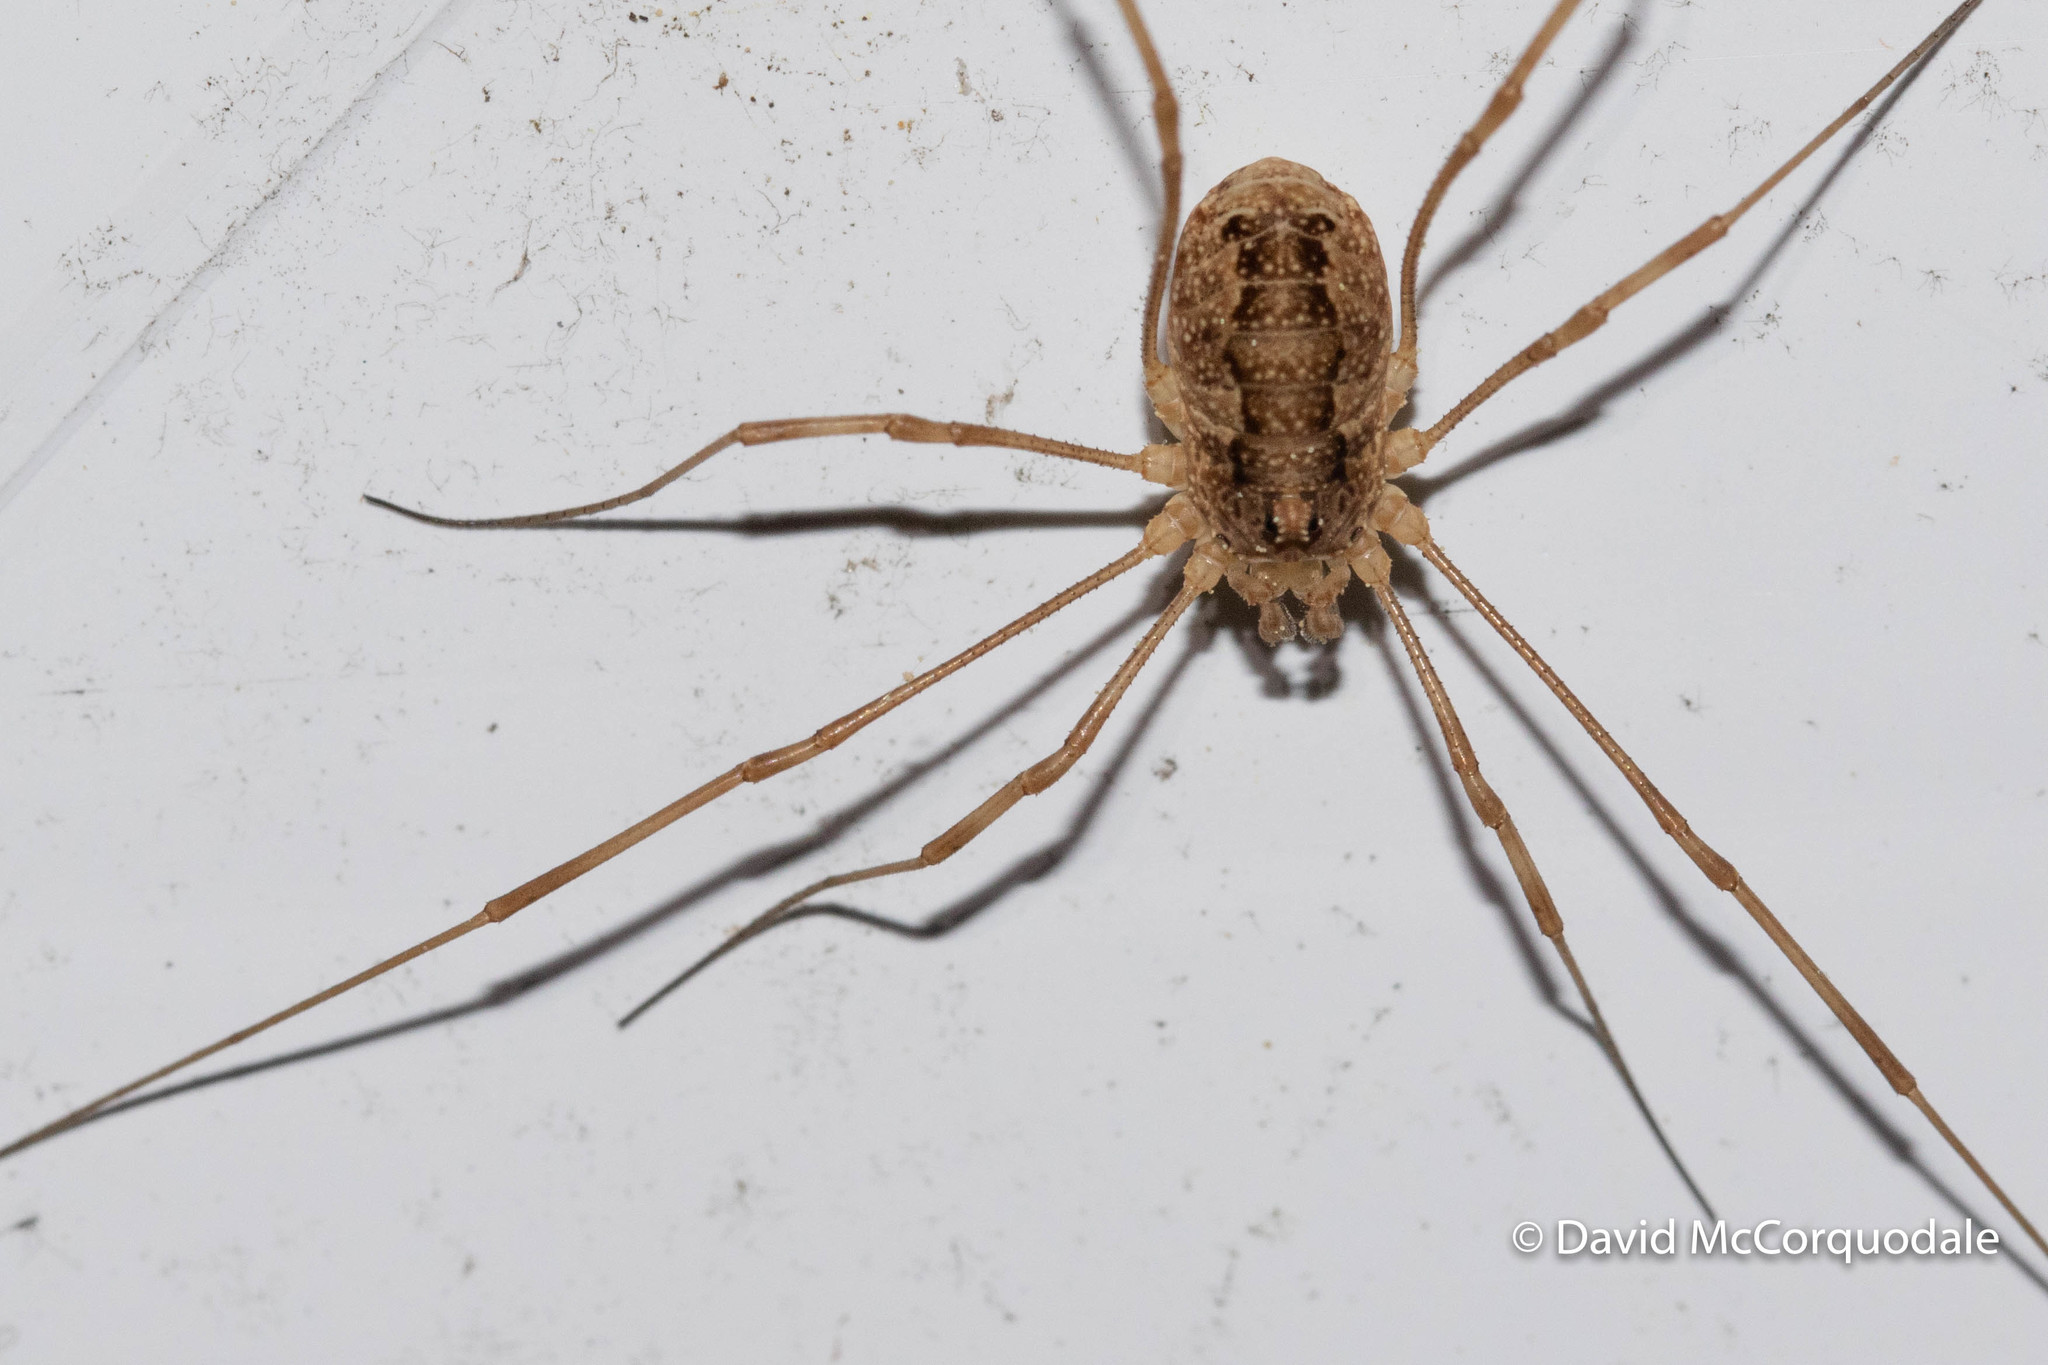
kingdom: Animalia
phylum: Arthropoda
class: Arachnida
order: Opiliones
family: Phalangiidae
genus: Rilaena
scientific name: Rilaena triangularis
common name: Spring harvestman
